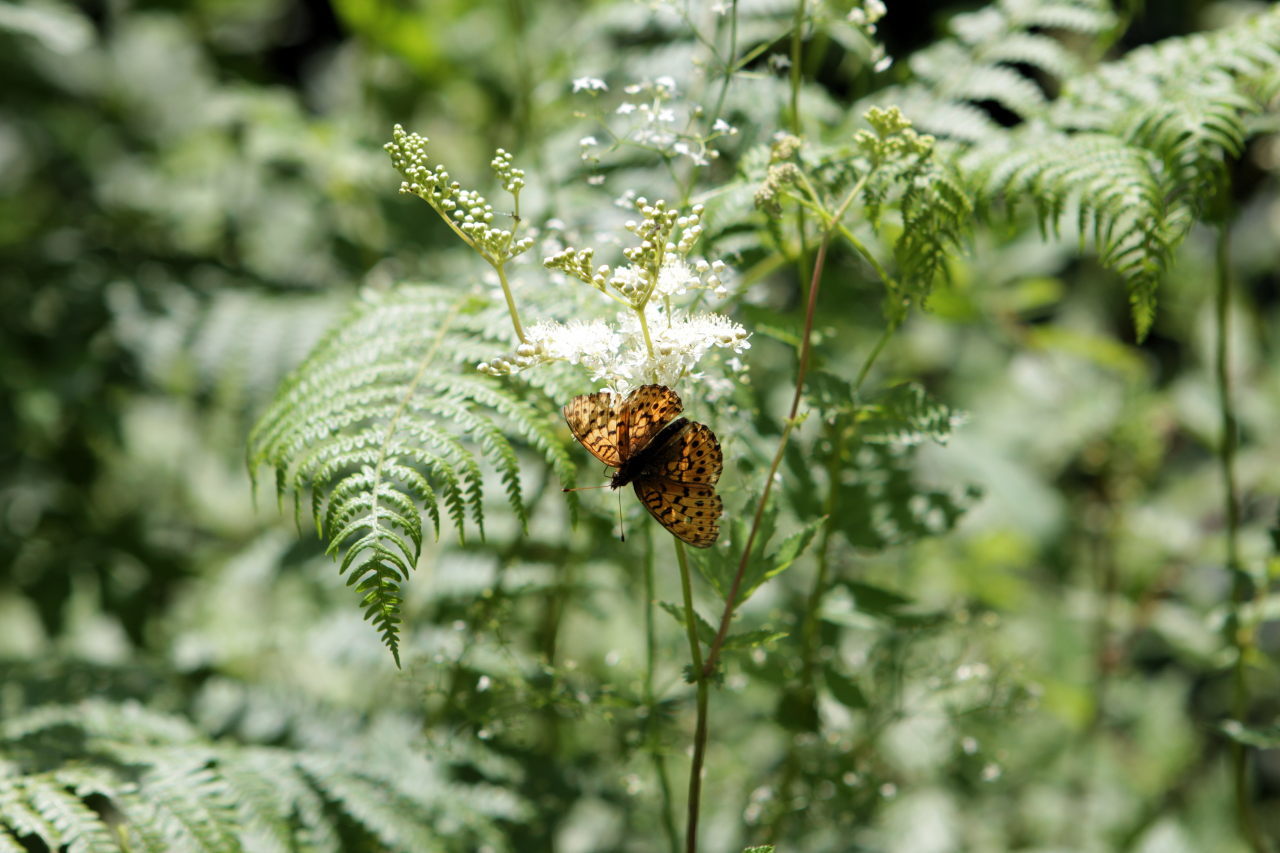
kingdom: Animalia
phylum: Arthropoda
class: Insecta
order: Lepidoptera
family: Nymphalidae
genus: Brenthis
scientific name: Brenthis ino
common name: Lesser marbled fritillary
